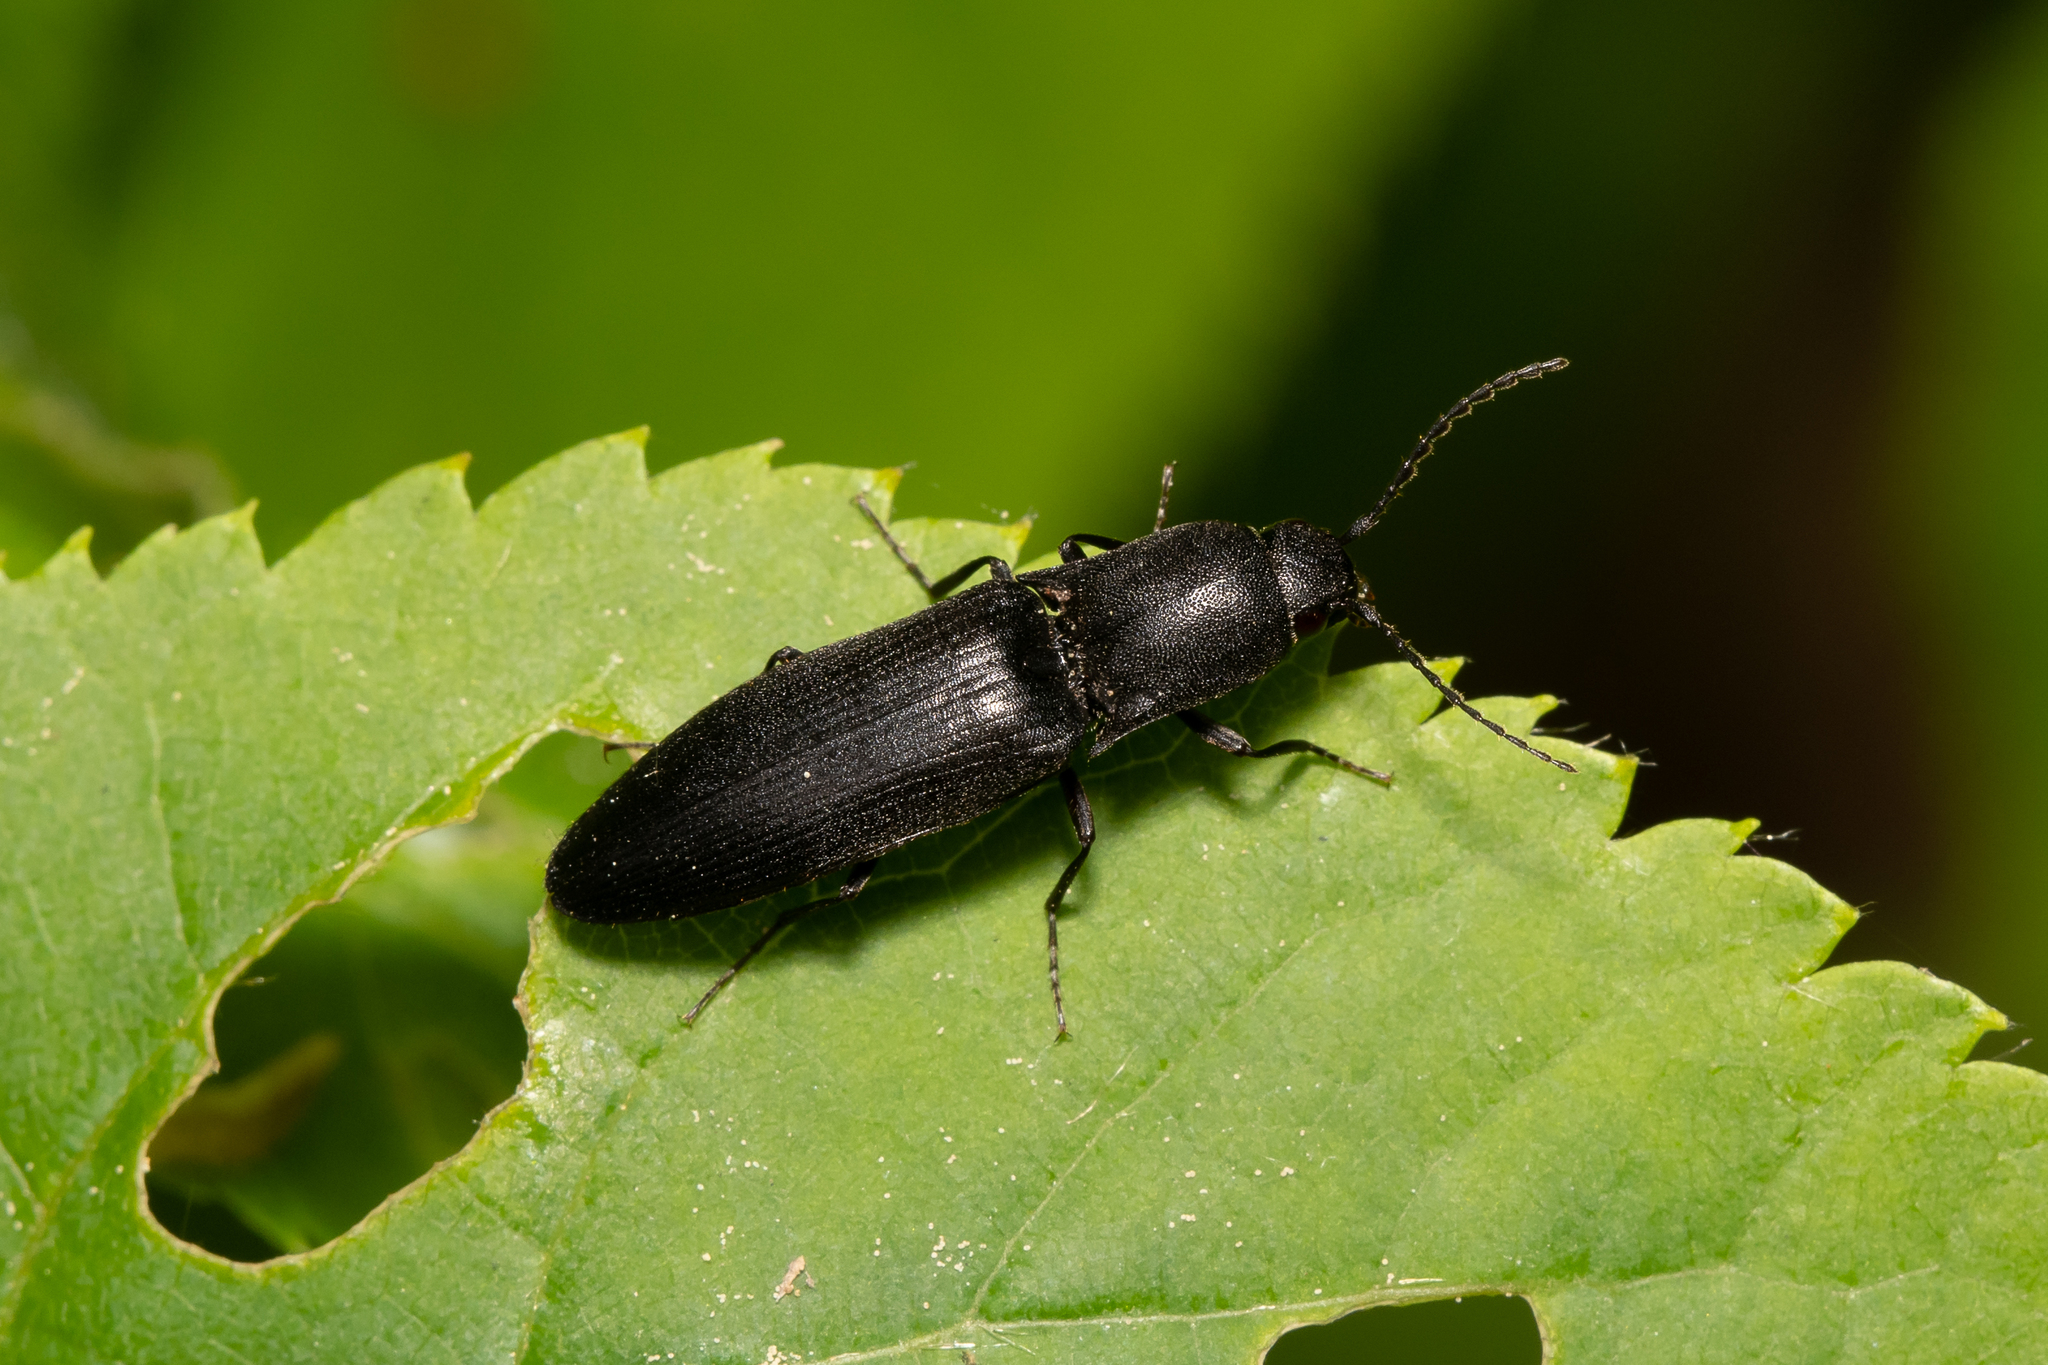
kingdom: Animalia
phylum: Arthropoda
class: Insecta
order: Coleoptera
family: Elateridae
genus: Ectinus
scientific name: Ectinus aterrimus
